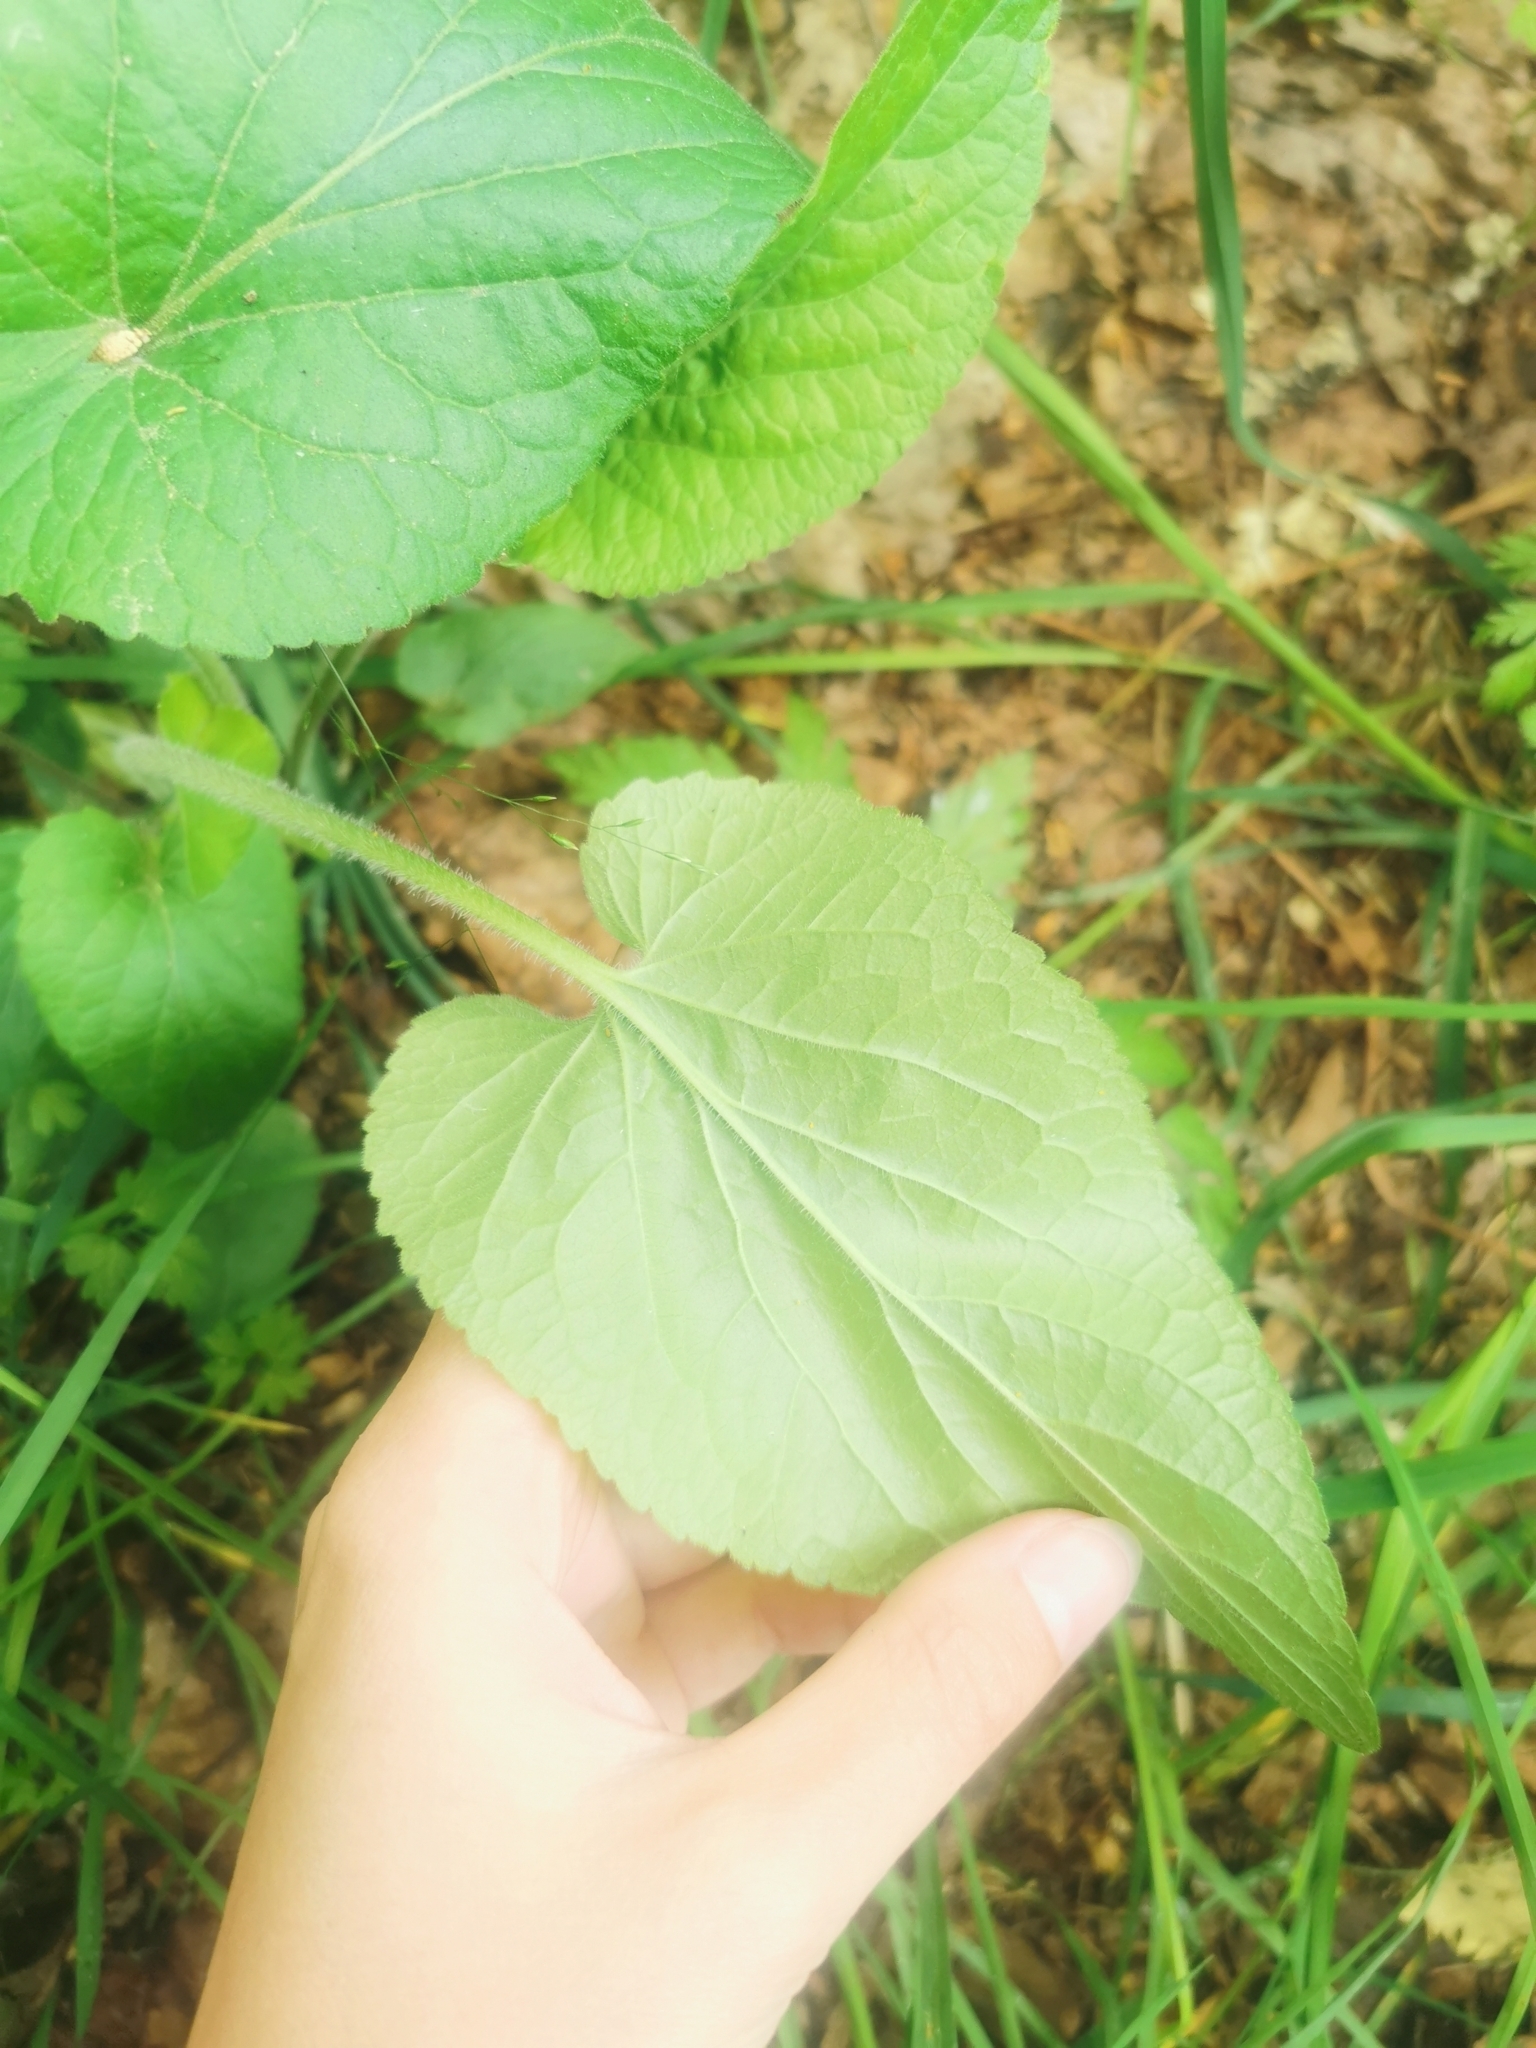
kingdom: Plantae
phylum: Tracheophyta
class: Magnoliopsida
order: Malpighiales
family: Violaceae
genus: Viola
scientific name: Viola hirta
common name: Hairy violet
